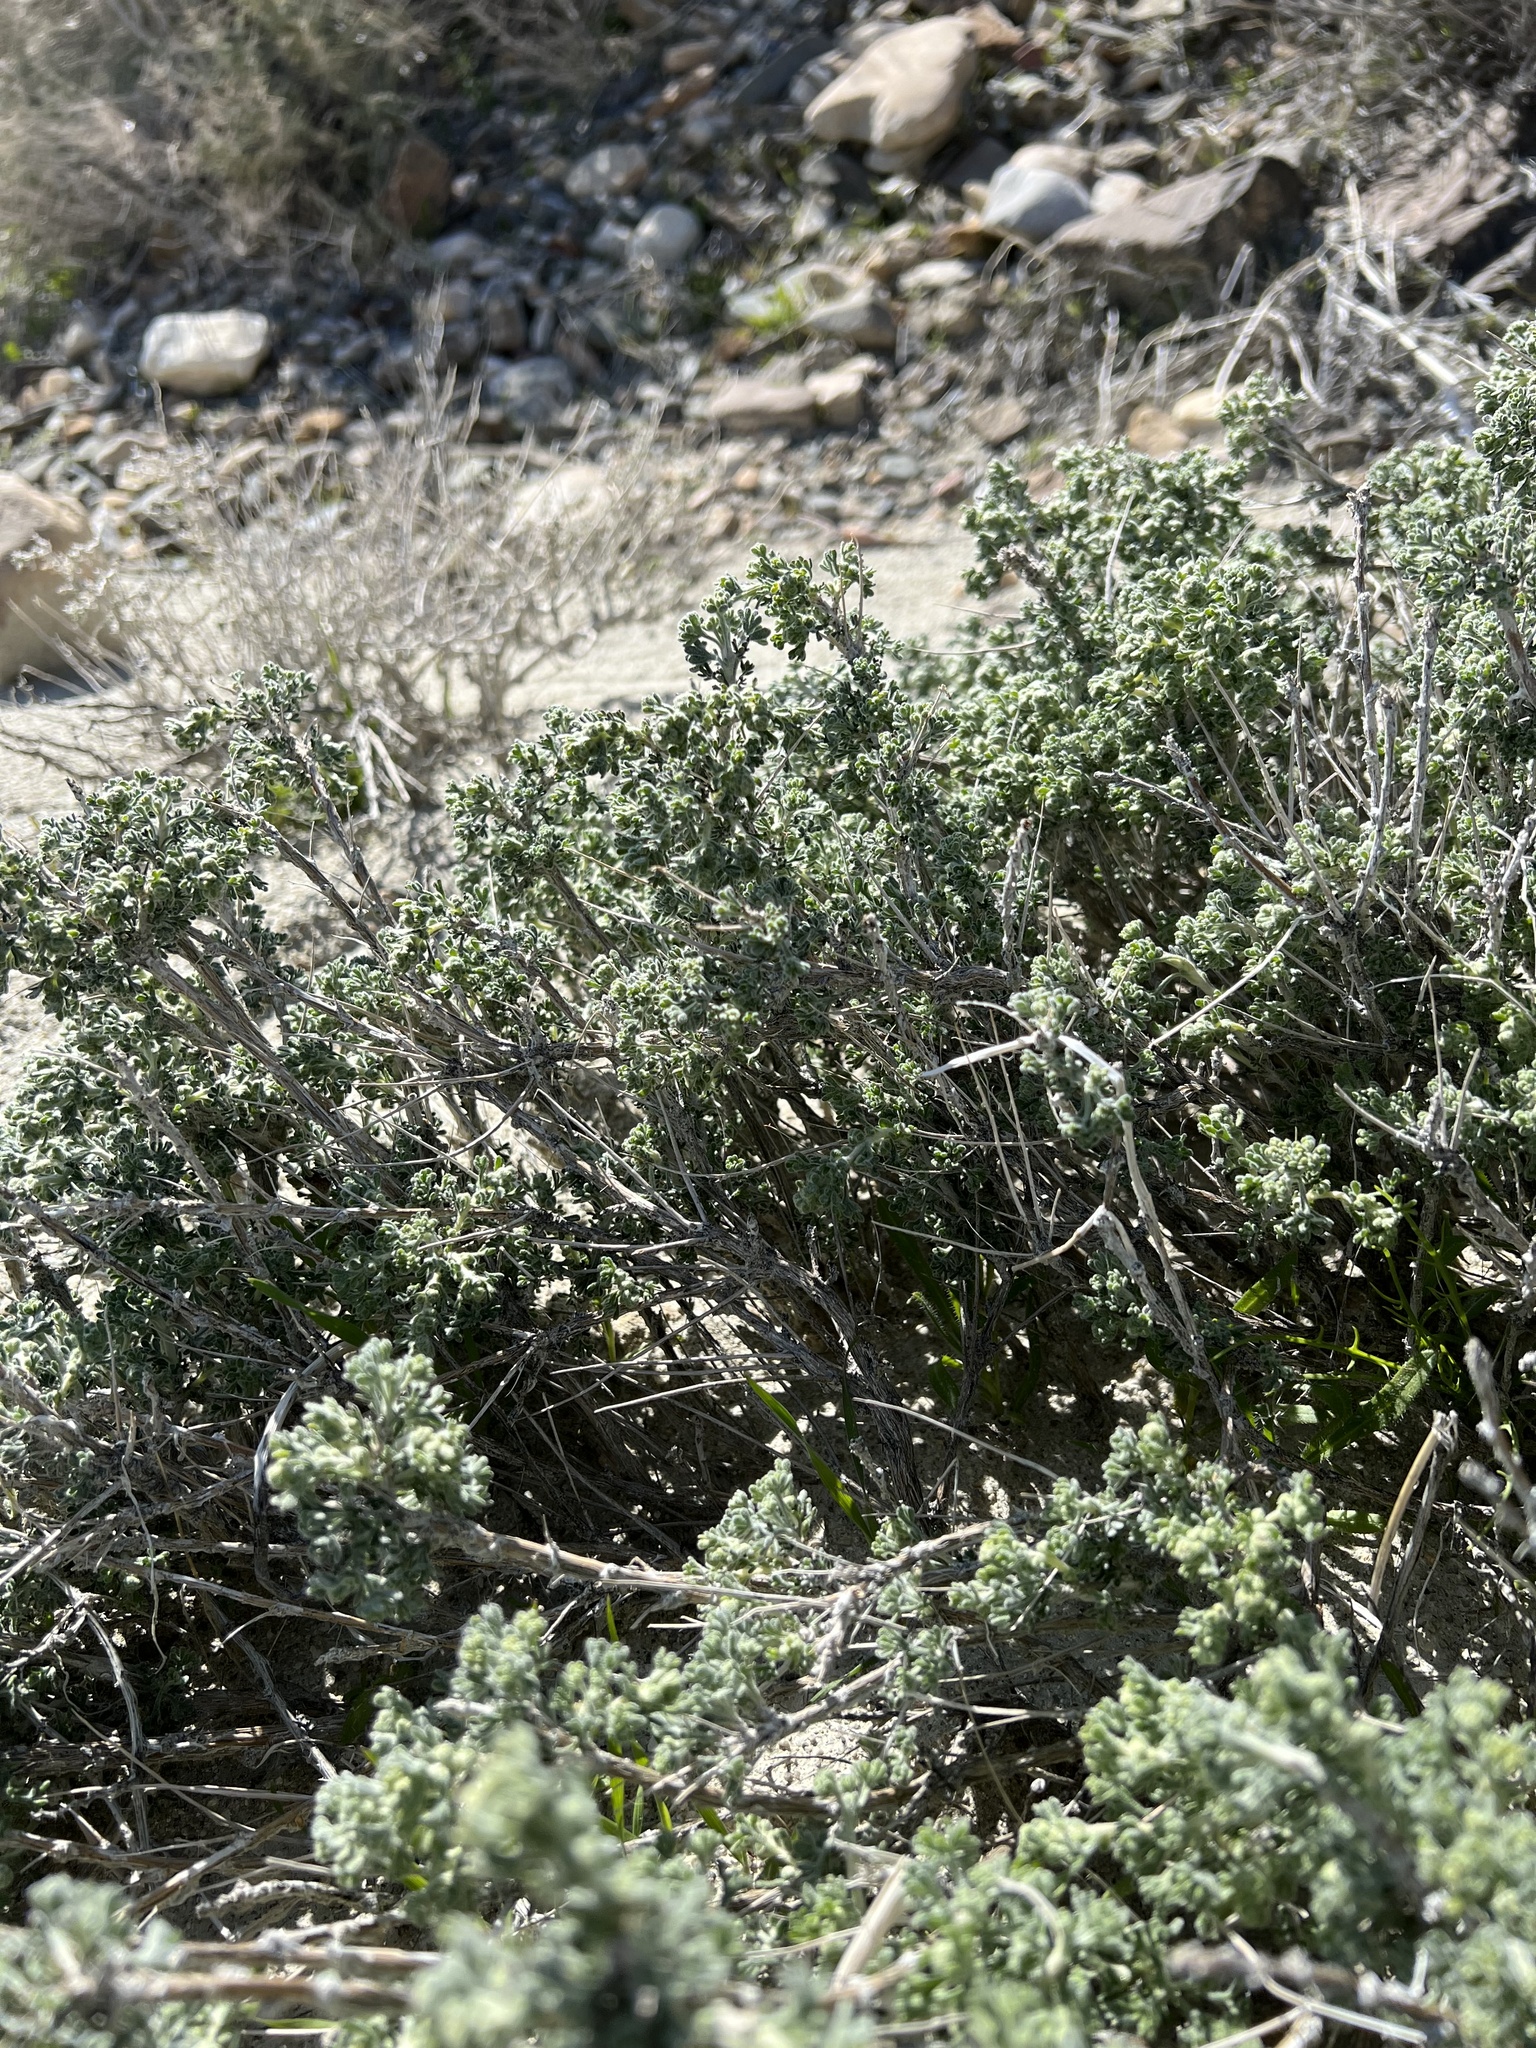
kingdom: Plantae
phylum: Tracheophyta
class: Magnoliopsida
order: Asterales
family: Asteraceae
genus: Artemisia
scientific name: Artemisia spinescens
